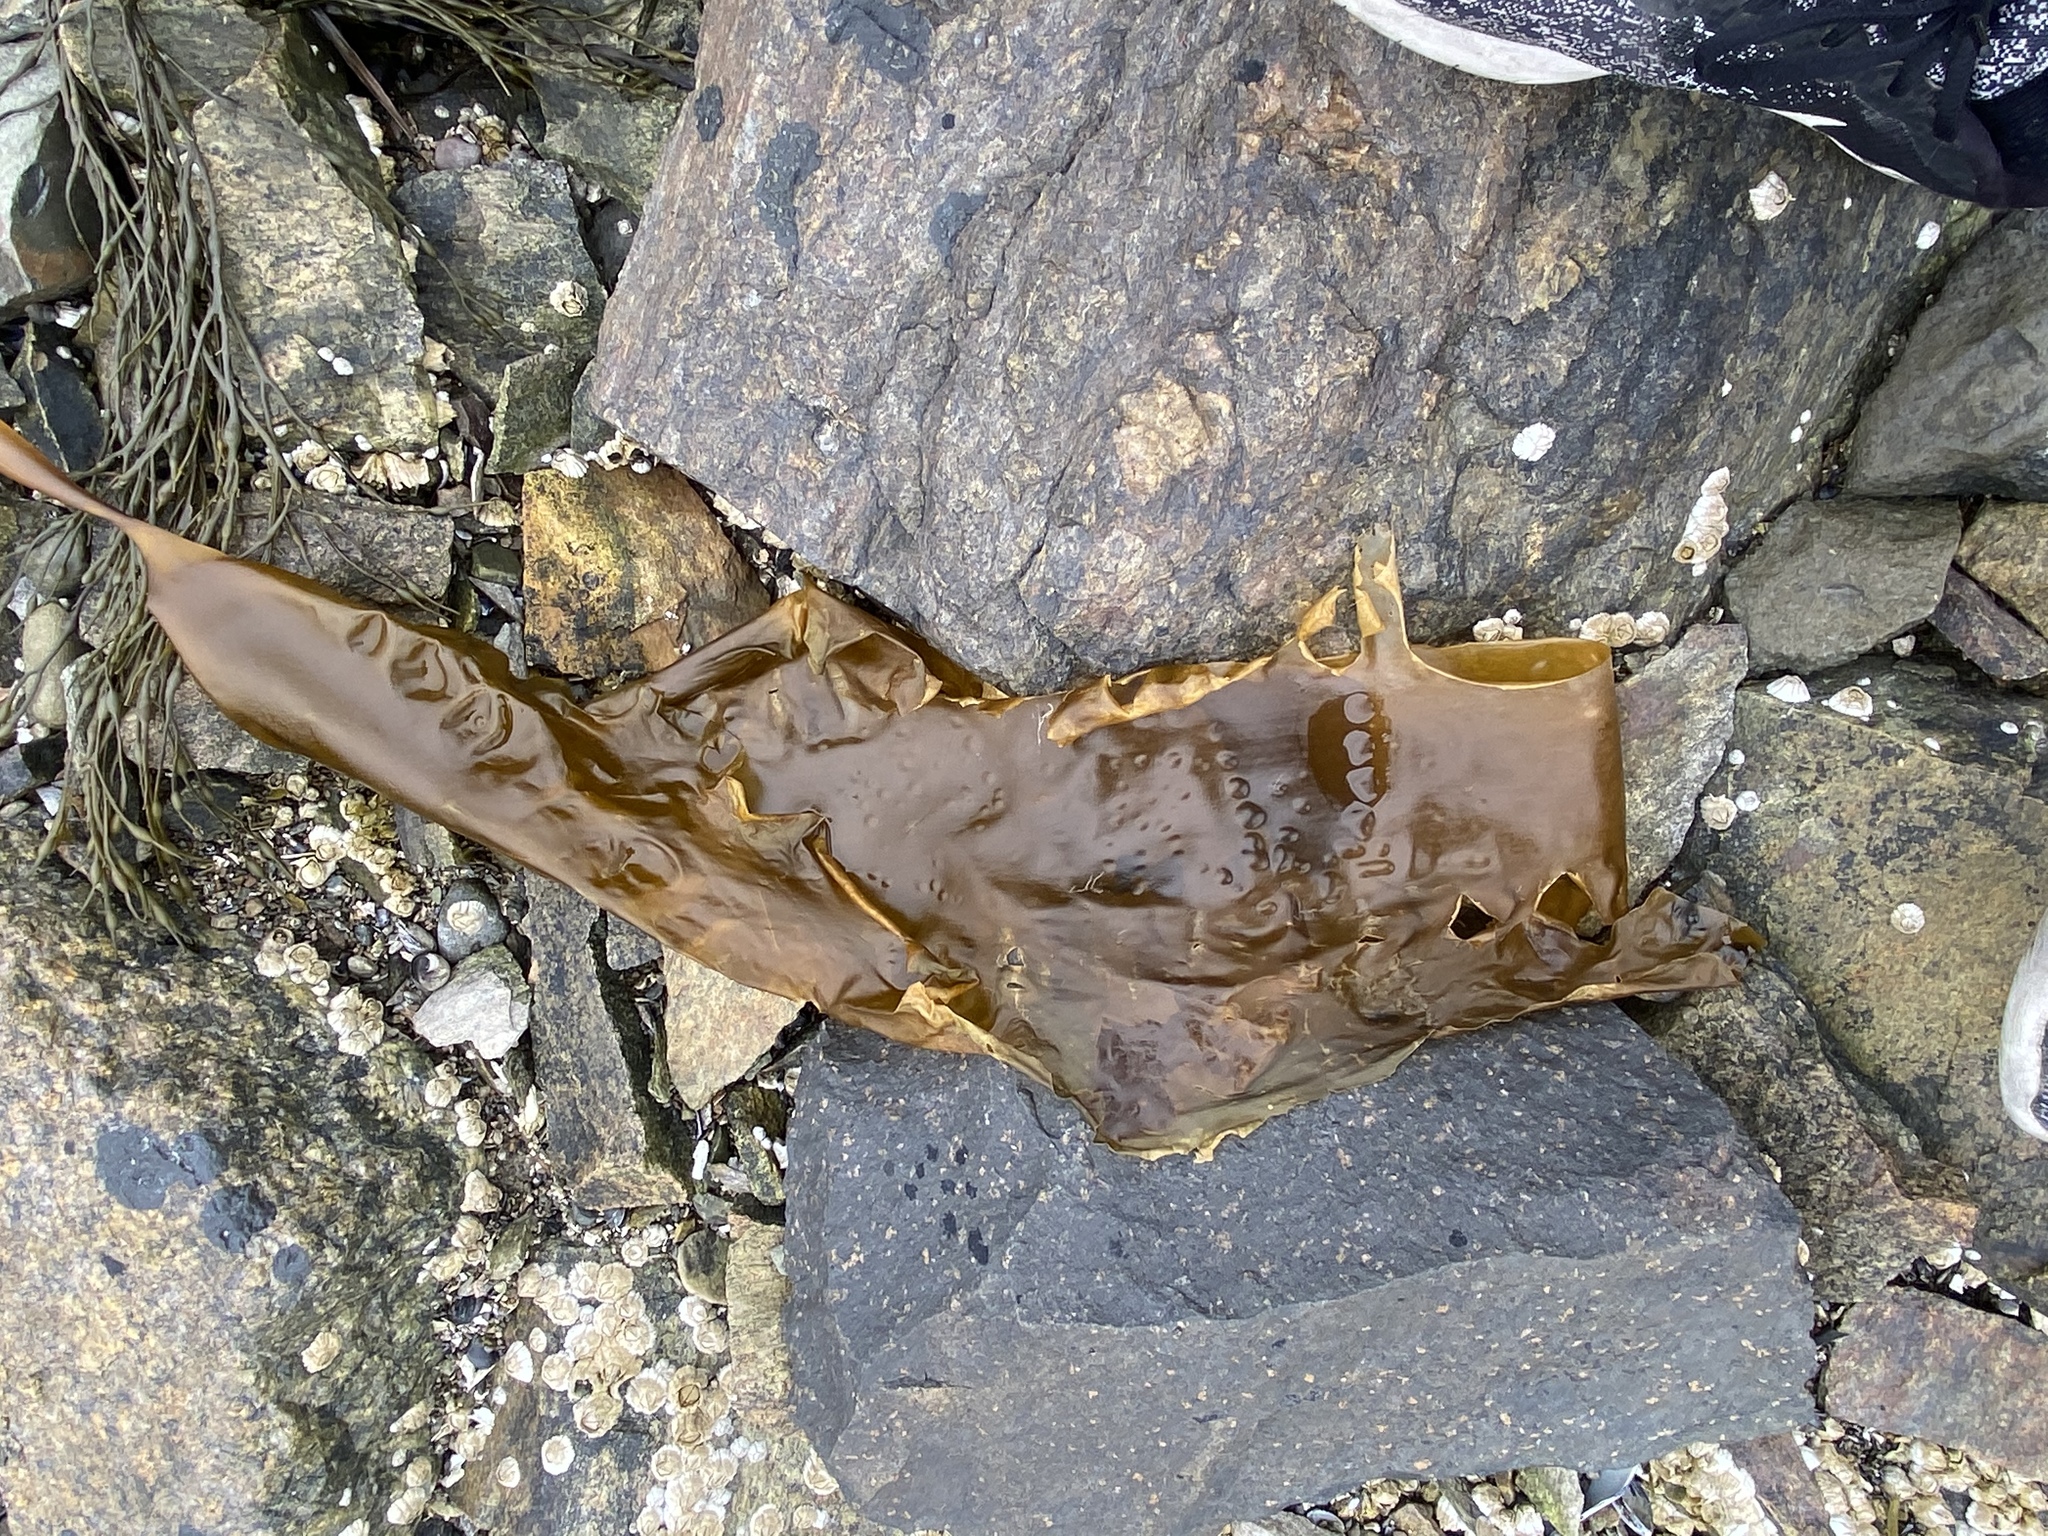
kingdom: Chromista
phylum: Ochrophyta
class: Phaeophyceae
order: Laminariales
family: Laminariaceae
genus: Saccharina
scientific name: Saccharina latissima
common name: Poor man's weather glass
